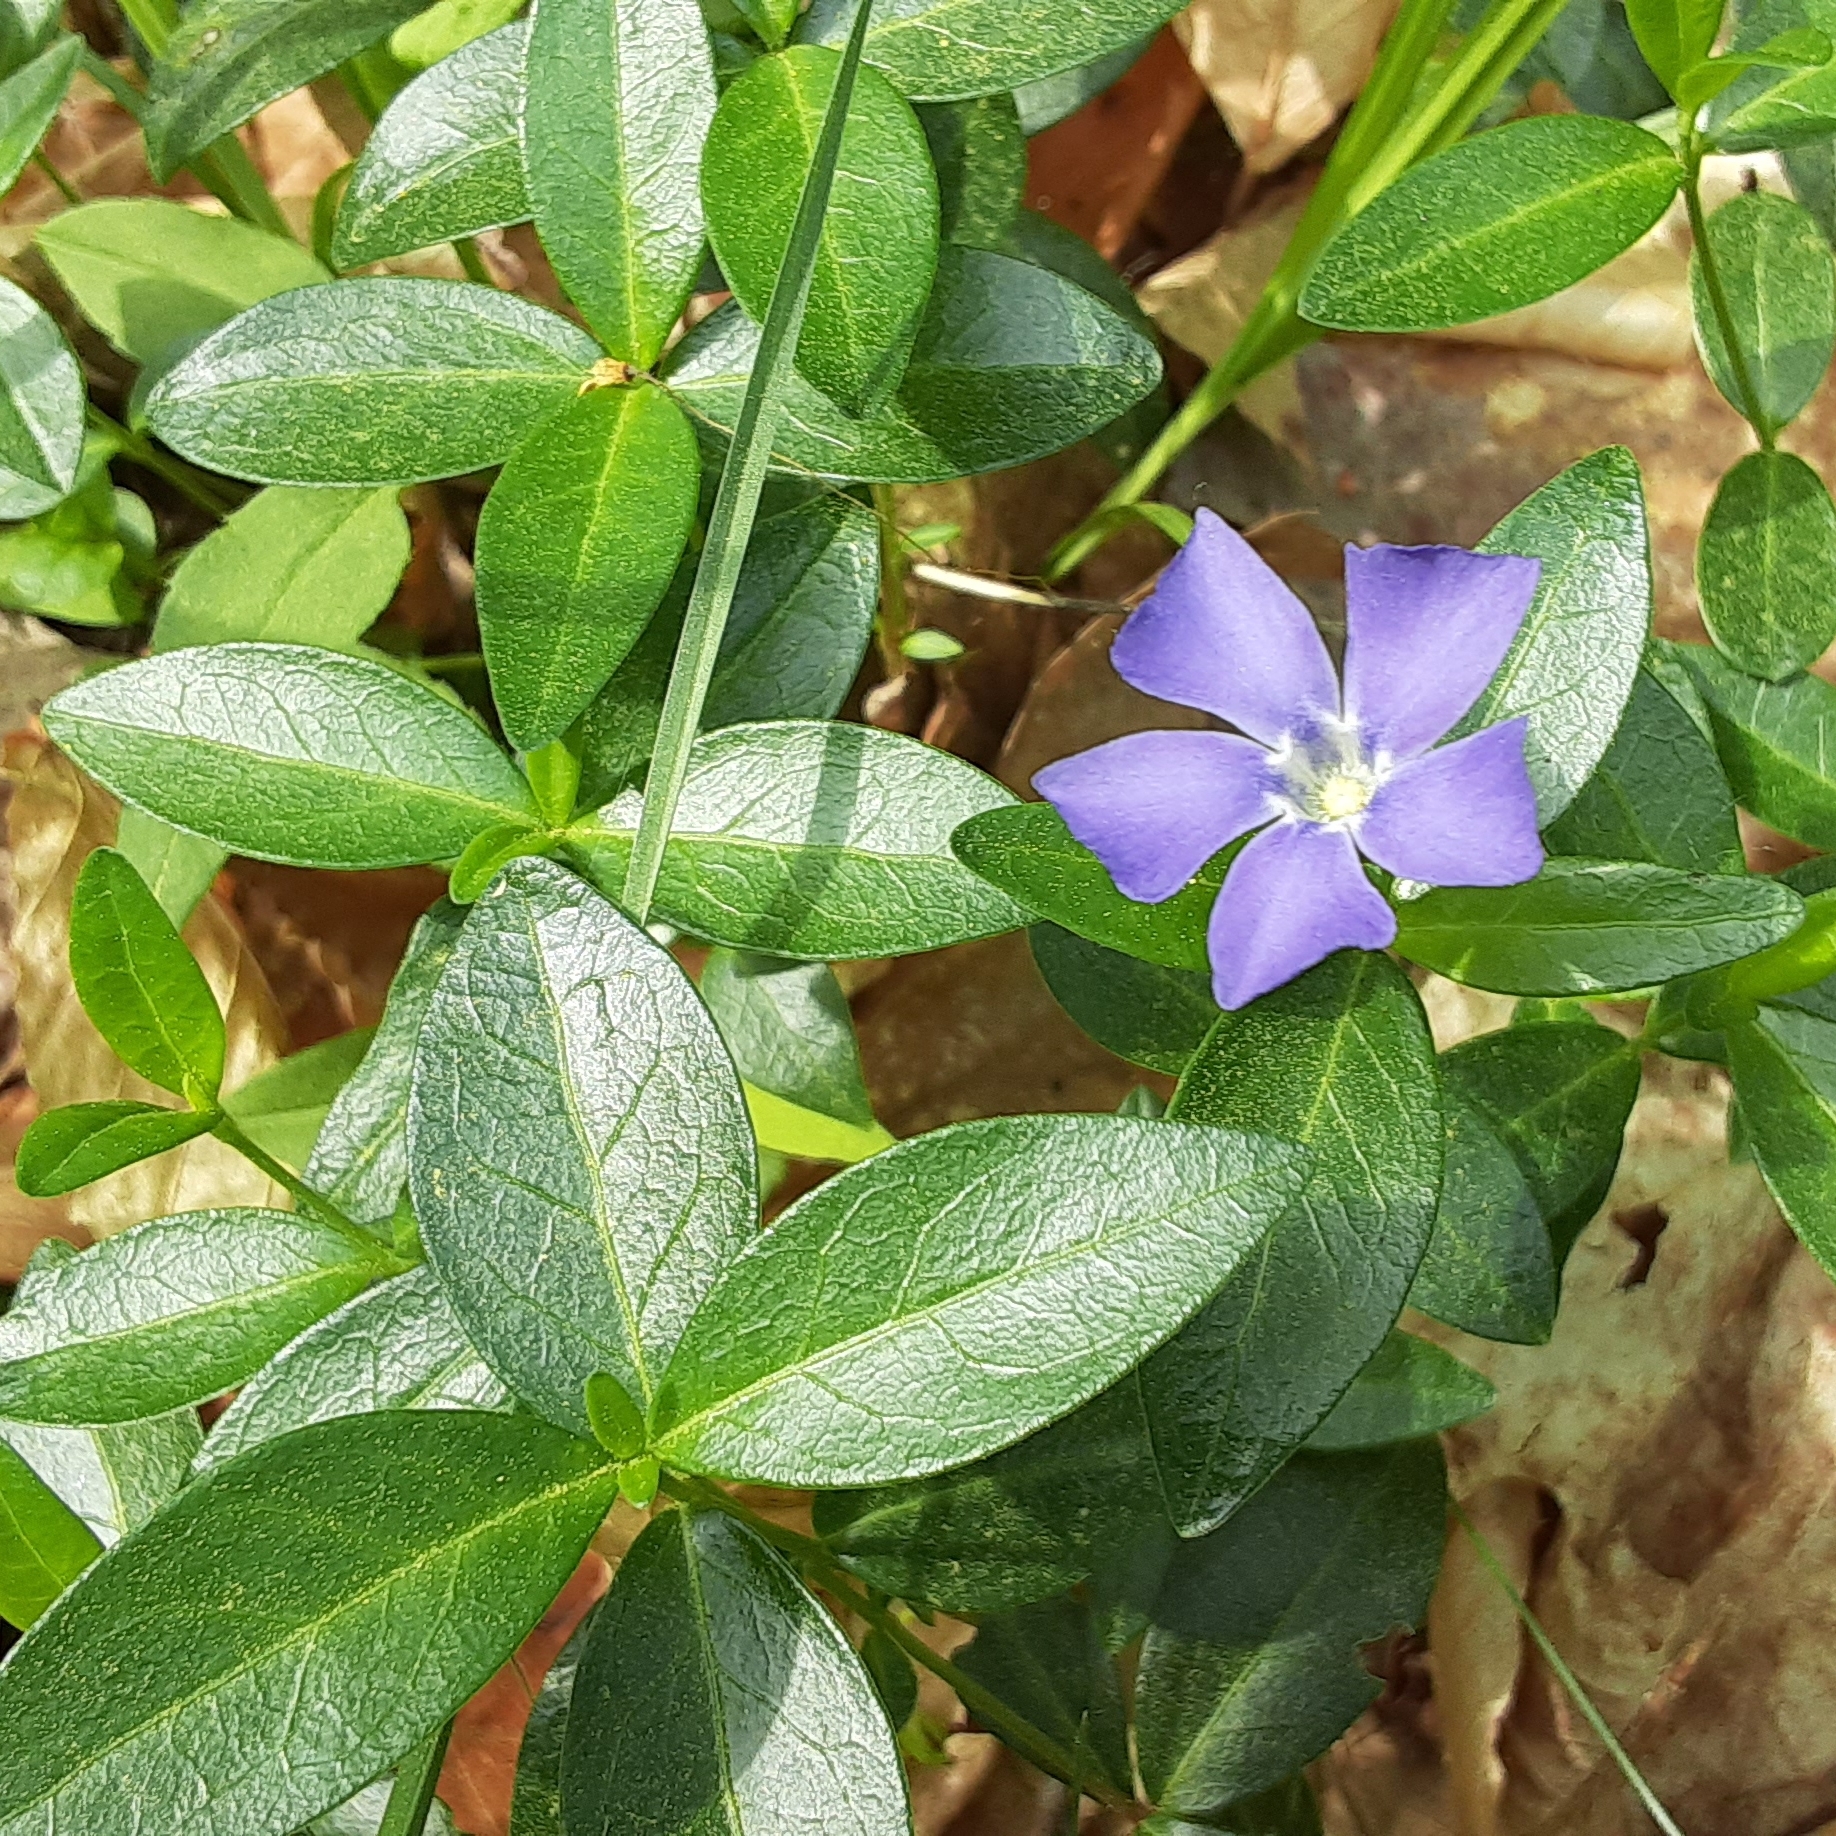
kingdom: Plantae
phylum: Tracheophyta
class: Magnoliopsida
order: Gentianales
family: Apocynaceae
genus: Vinca
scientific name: Vinca minor
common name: Lesser periwinkle
